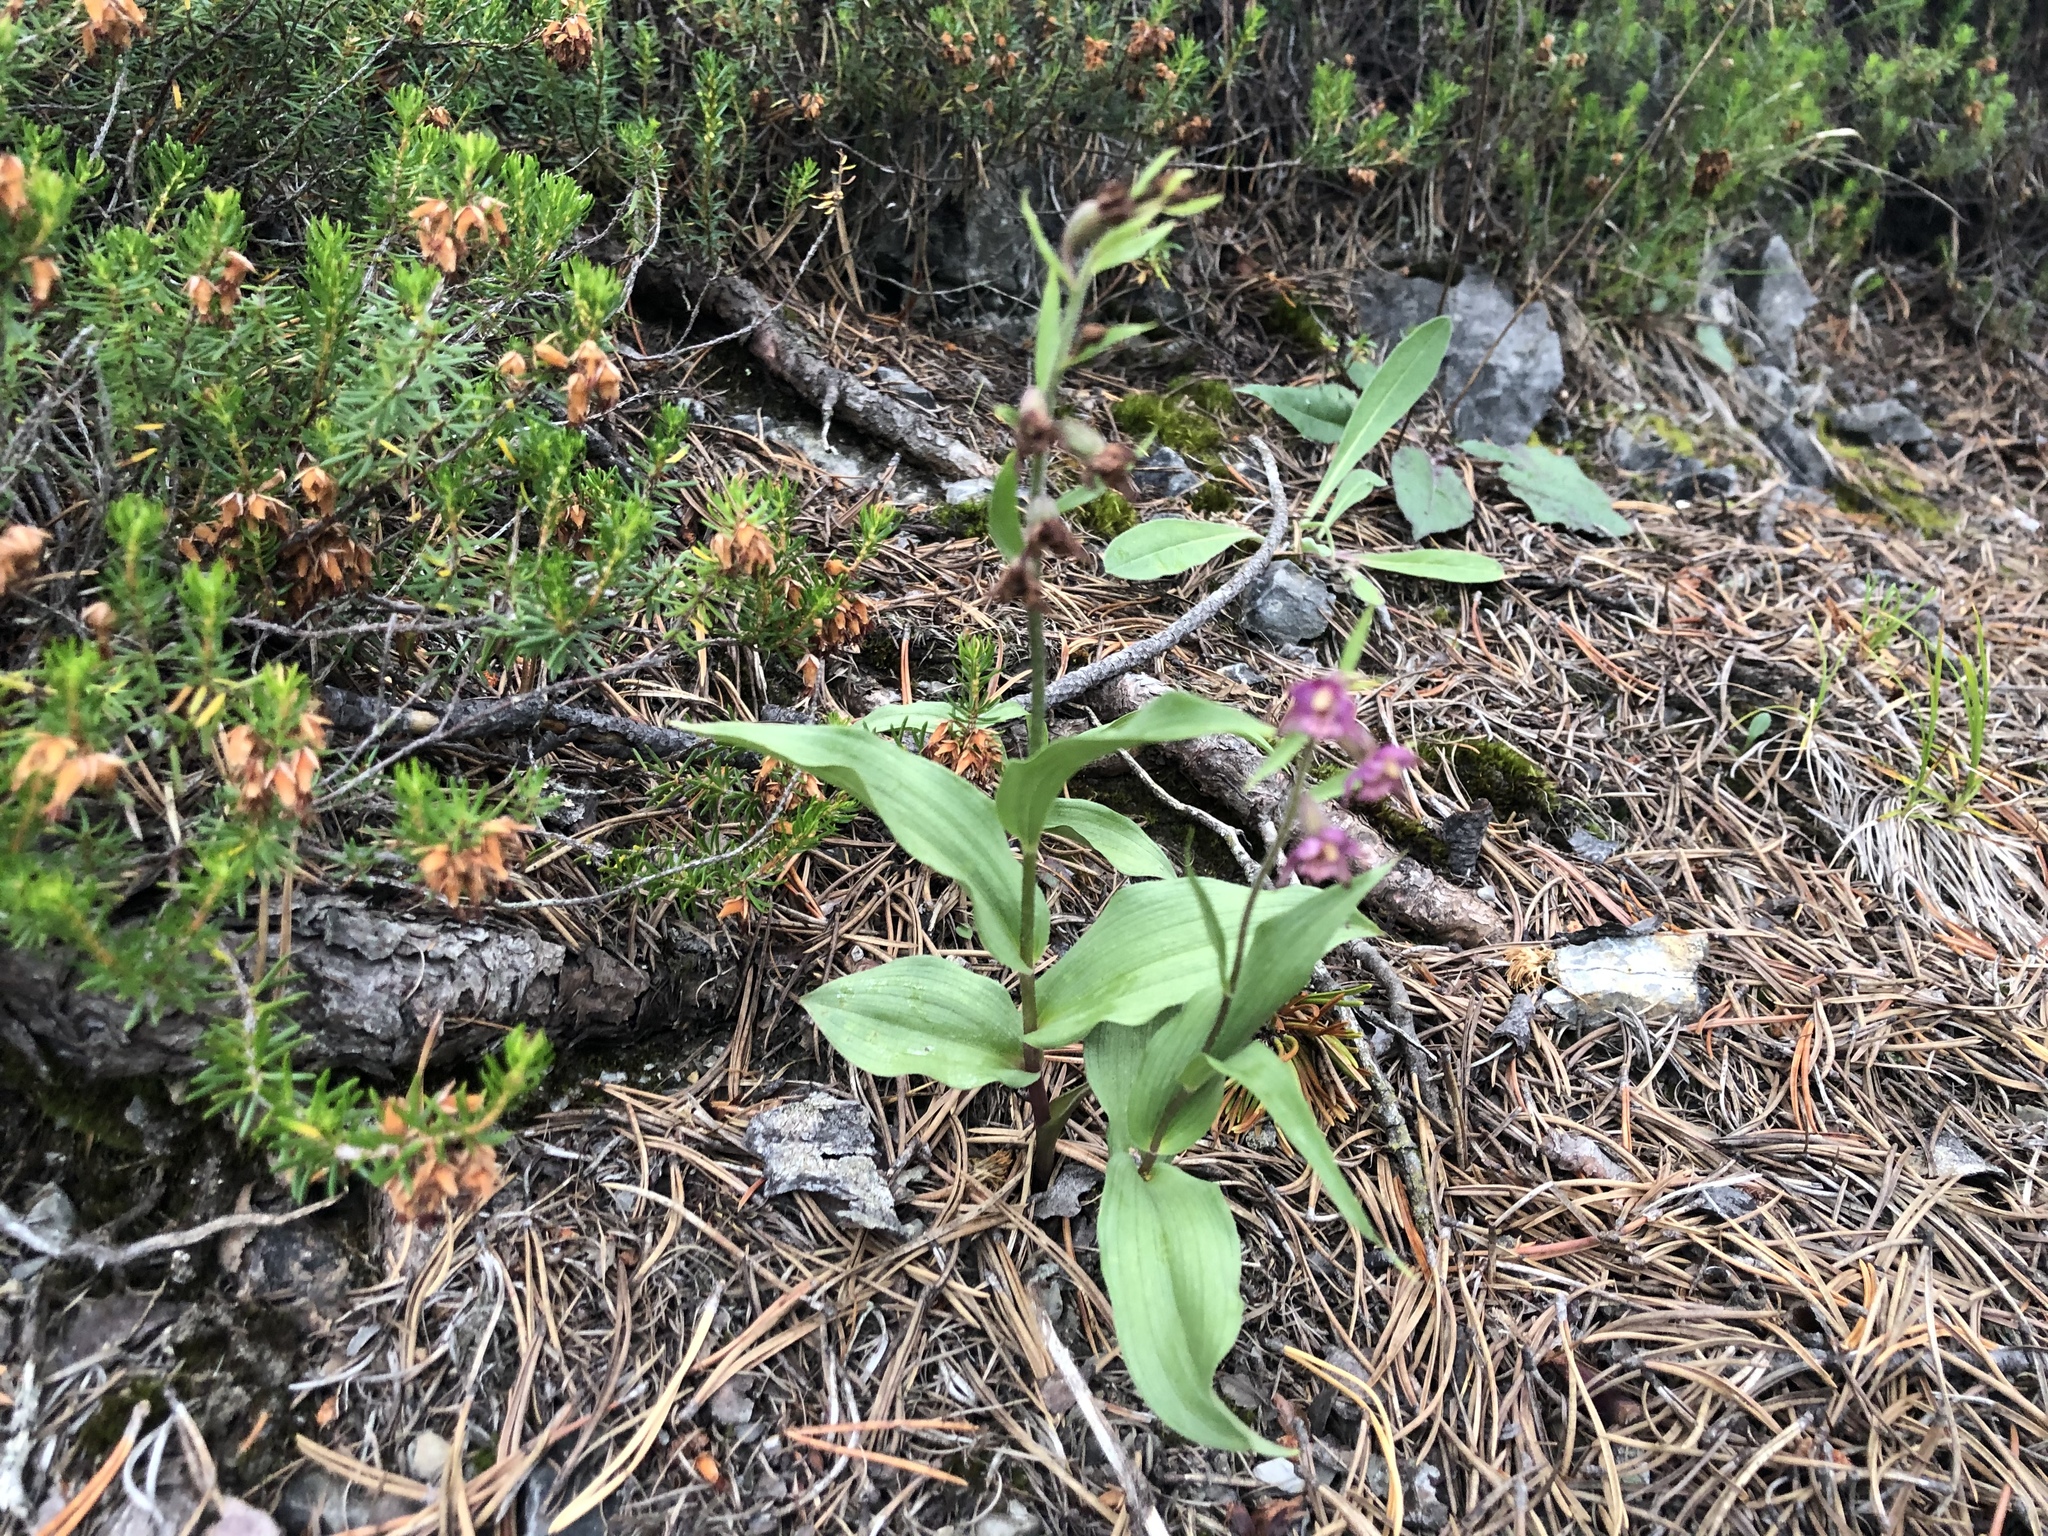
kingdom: Plantae
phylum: Tracheophyta
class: Liliopsida
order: Asparagales
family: Orchidaceae
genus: Epipactis
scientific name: Epipactis atrorubens
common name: Dark-red helleborine
